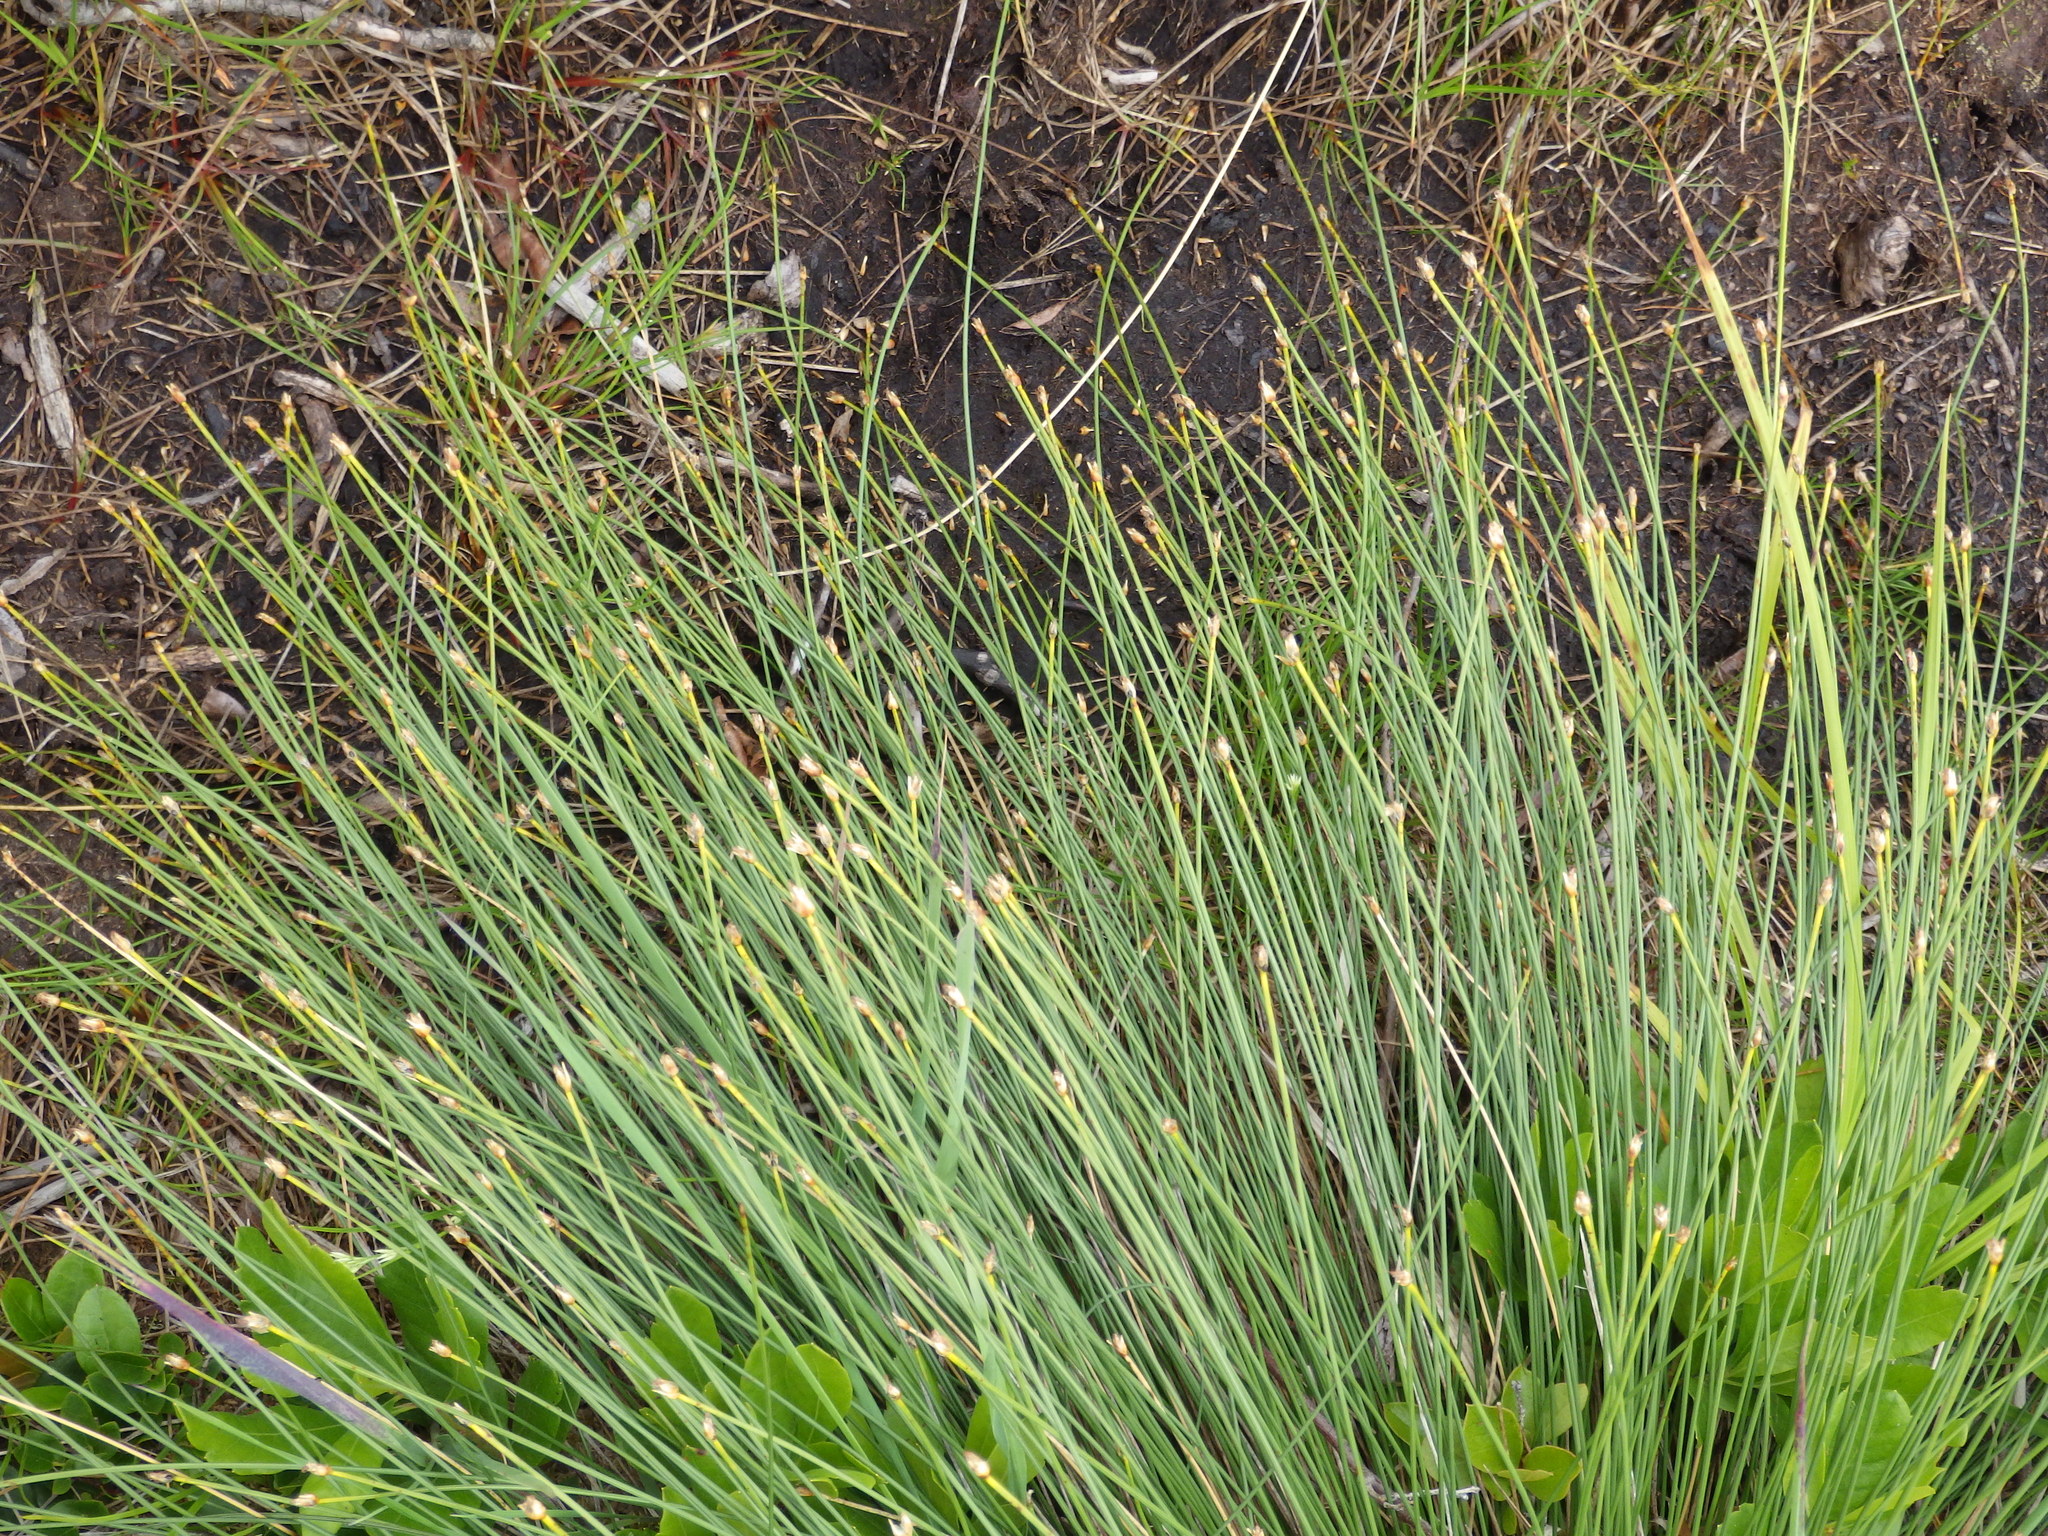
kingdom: Plantae
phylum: Tracheophyta
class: Liliopsida
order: Poales
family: Cyperaceae
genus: Trichophorum
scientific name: Trichophorum cespitosum
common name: Cespitose bulrush
